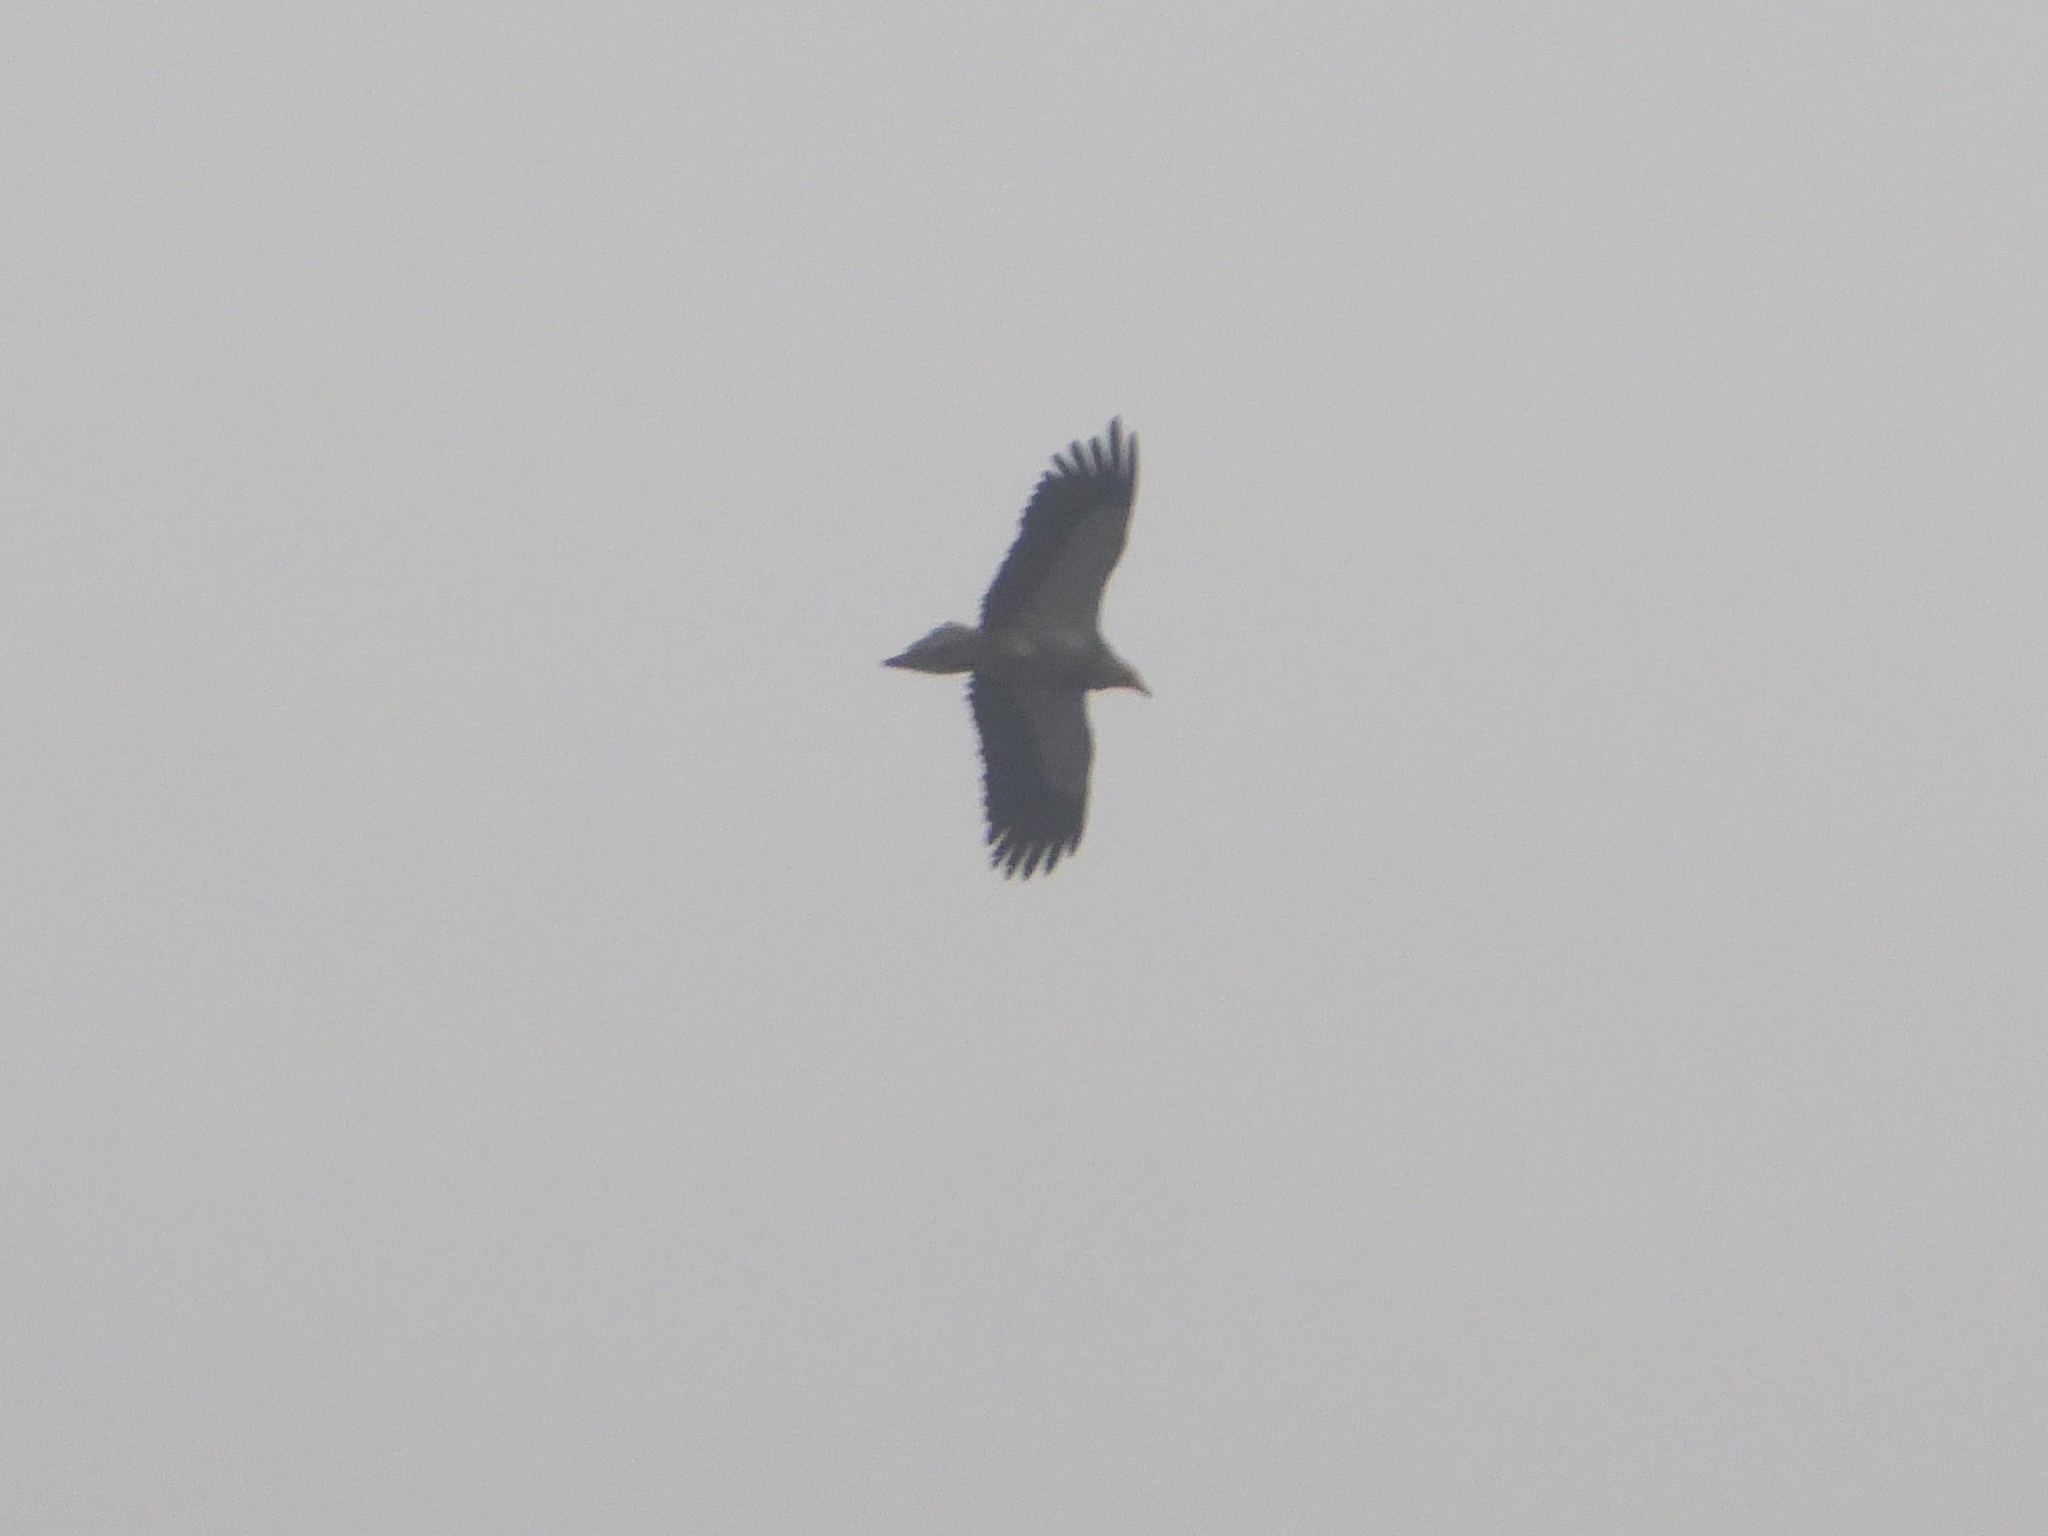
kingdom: Animalia
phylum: Chordata
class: Aves
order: Accipitriformes
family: Accipitridae
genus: Neophron
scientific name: Neophron percnopterus
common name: Egyptian vulture
